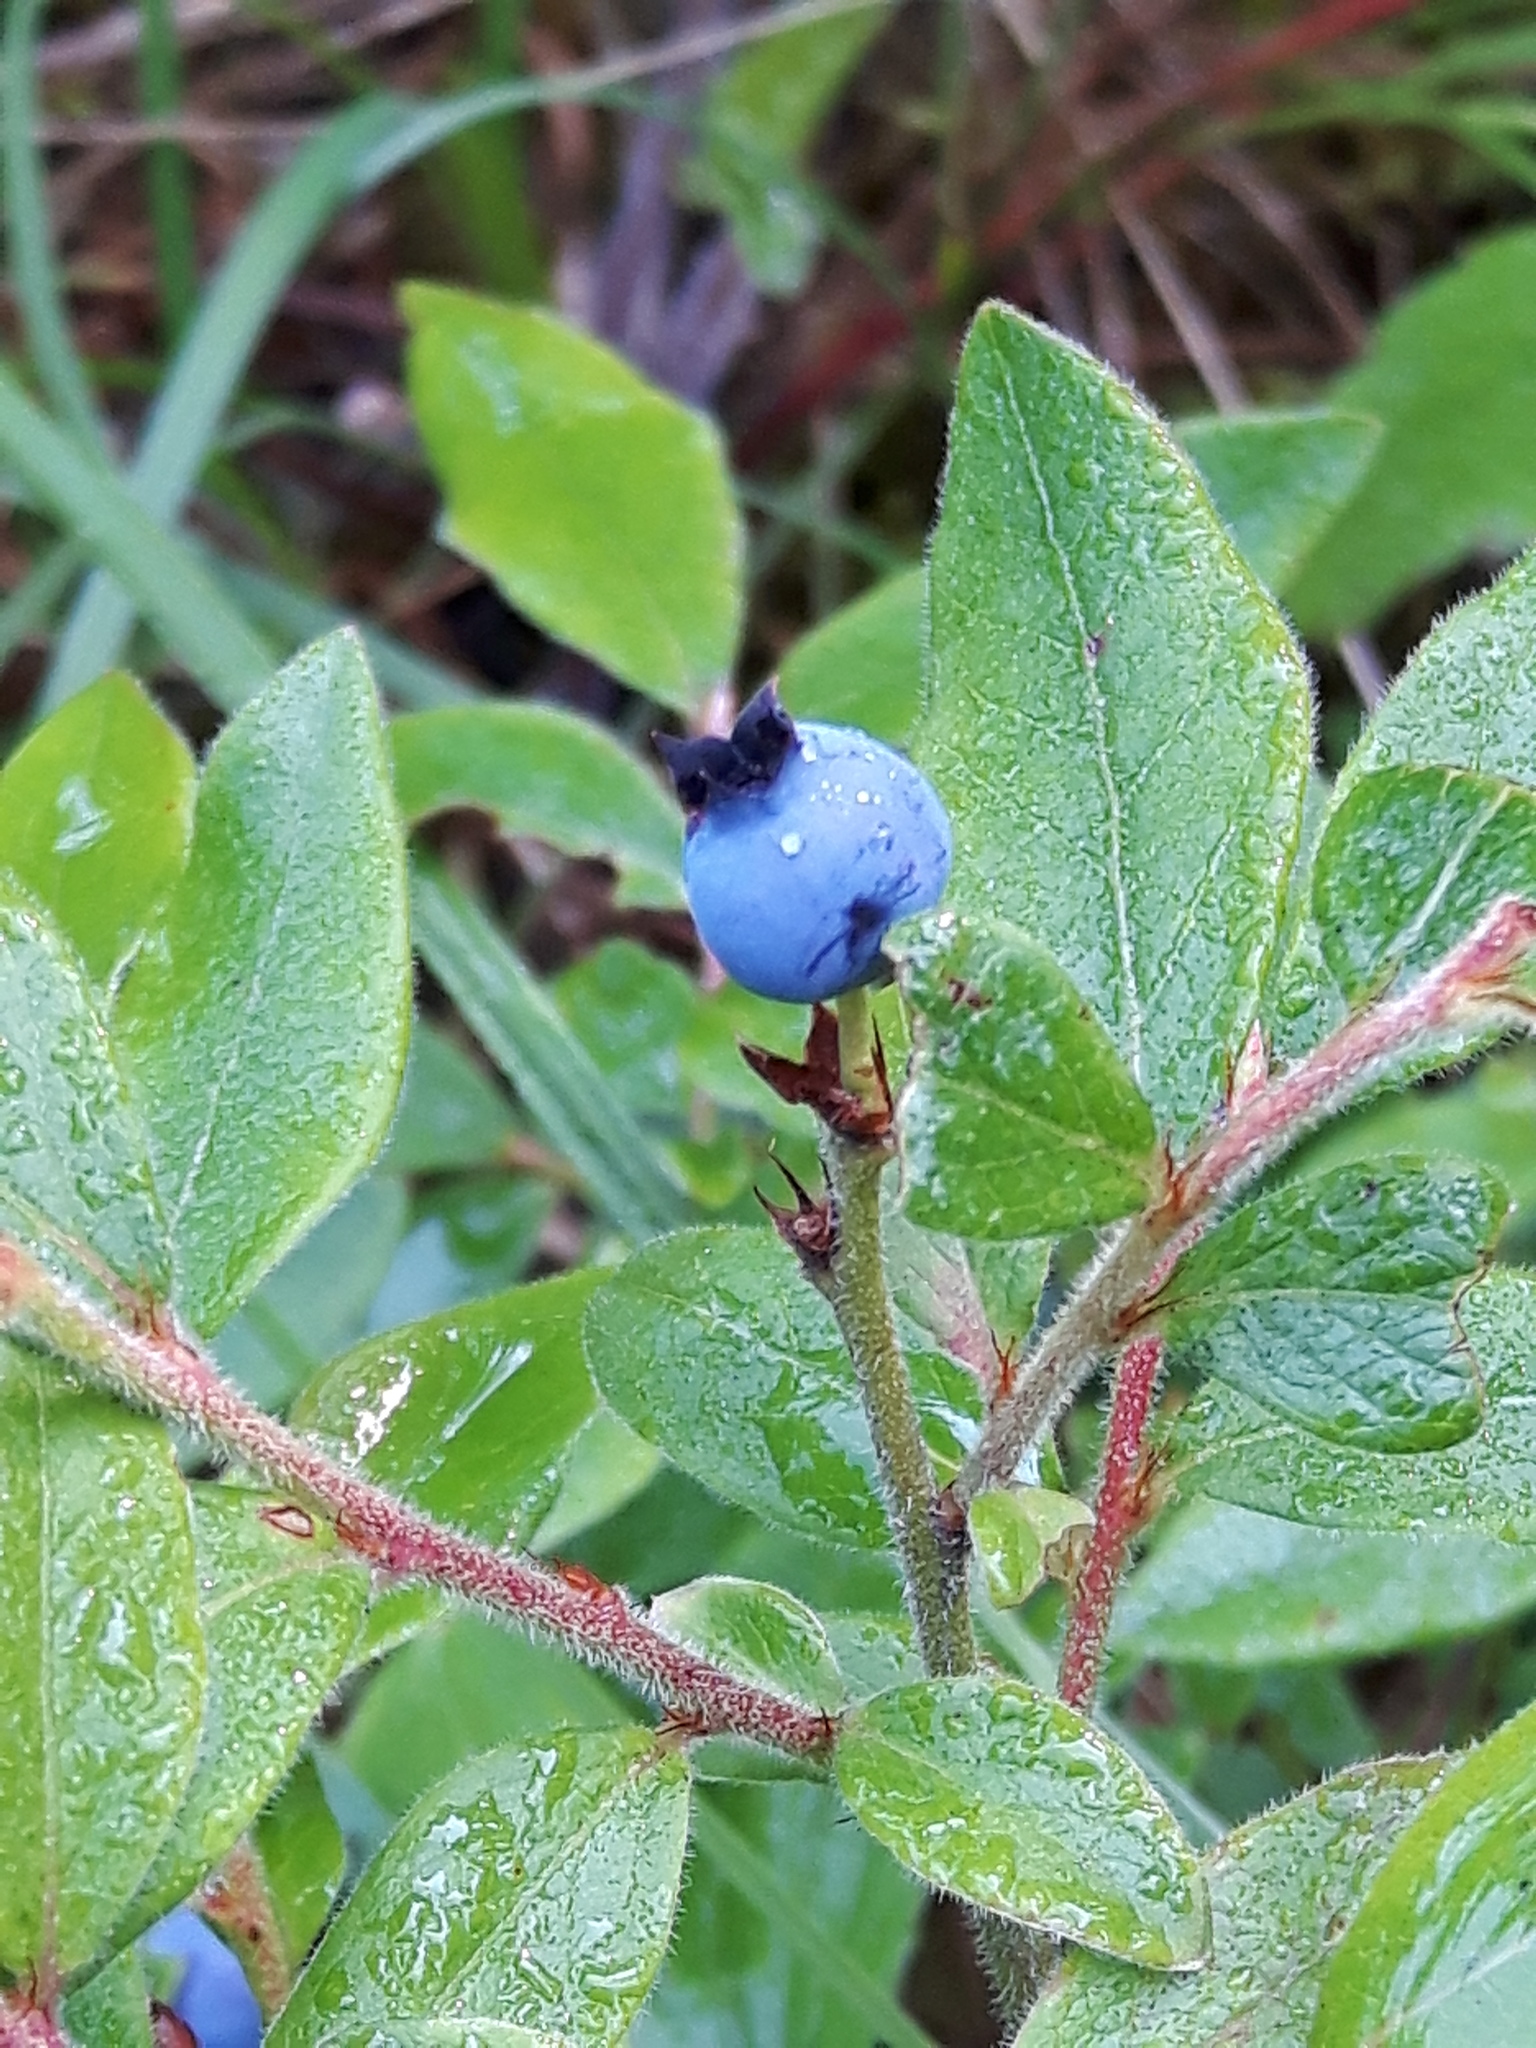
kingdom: Plantae
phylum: Tracheophyta
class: Magnoliopsida
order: Ericales
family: Ericaceae
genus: Vaccinium
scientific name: Vaccinium myrtilloides
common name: Canada blueberry
